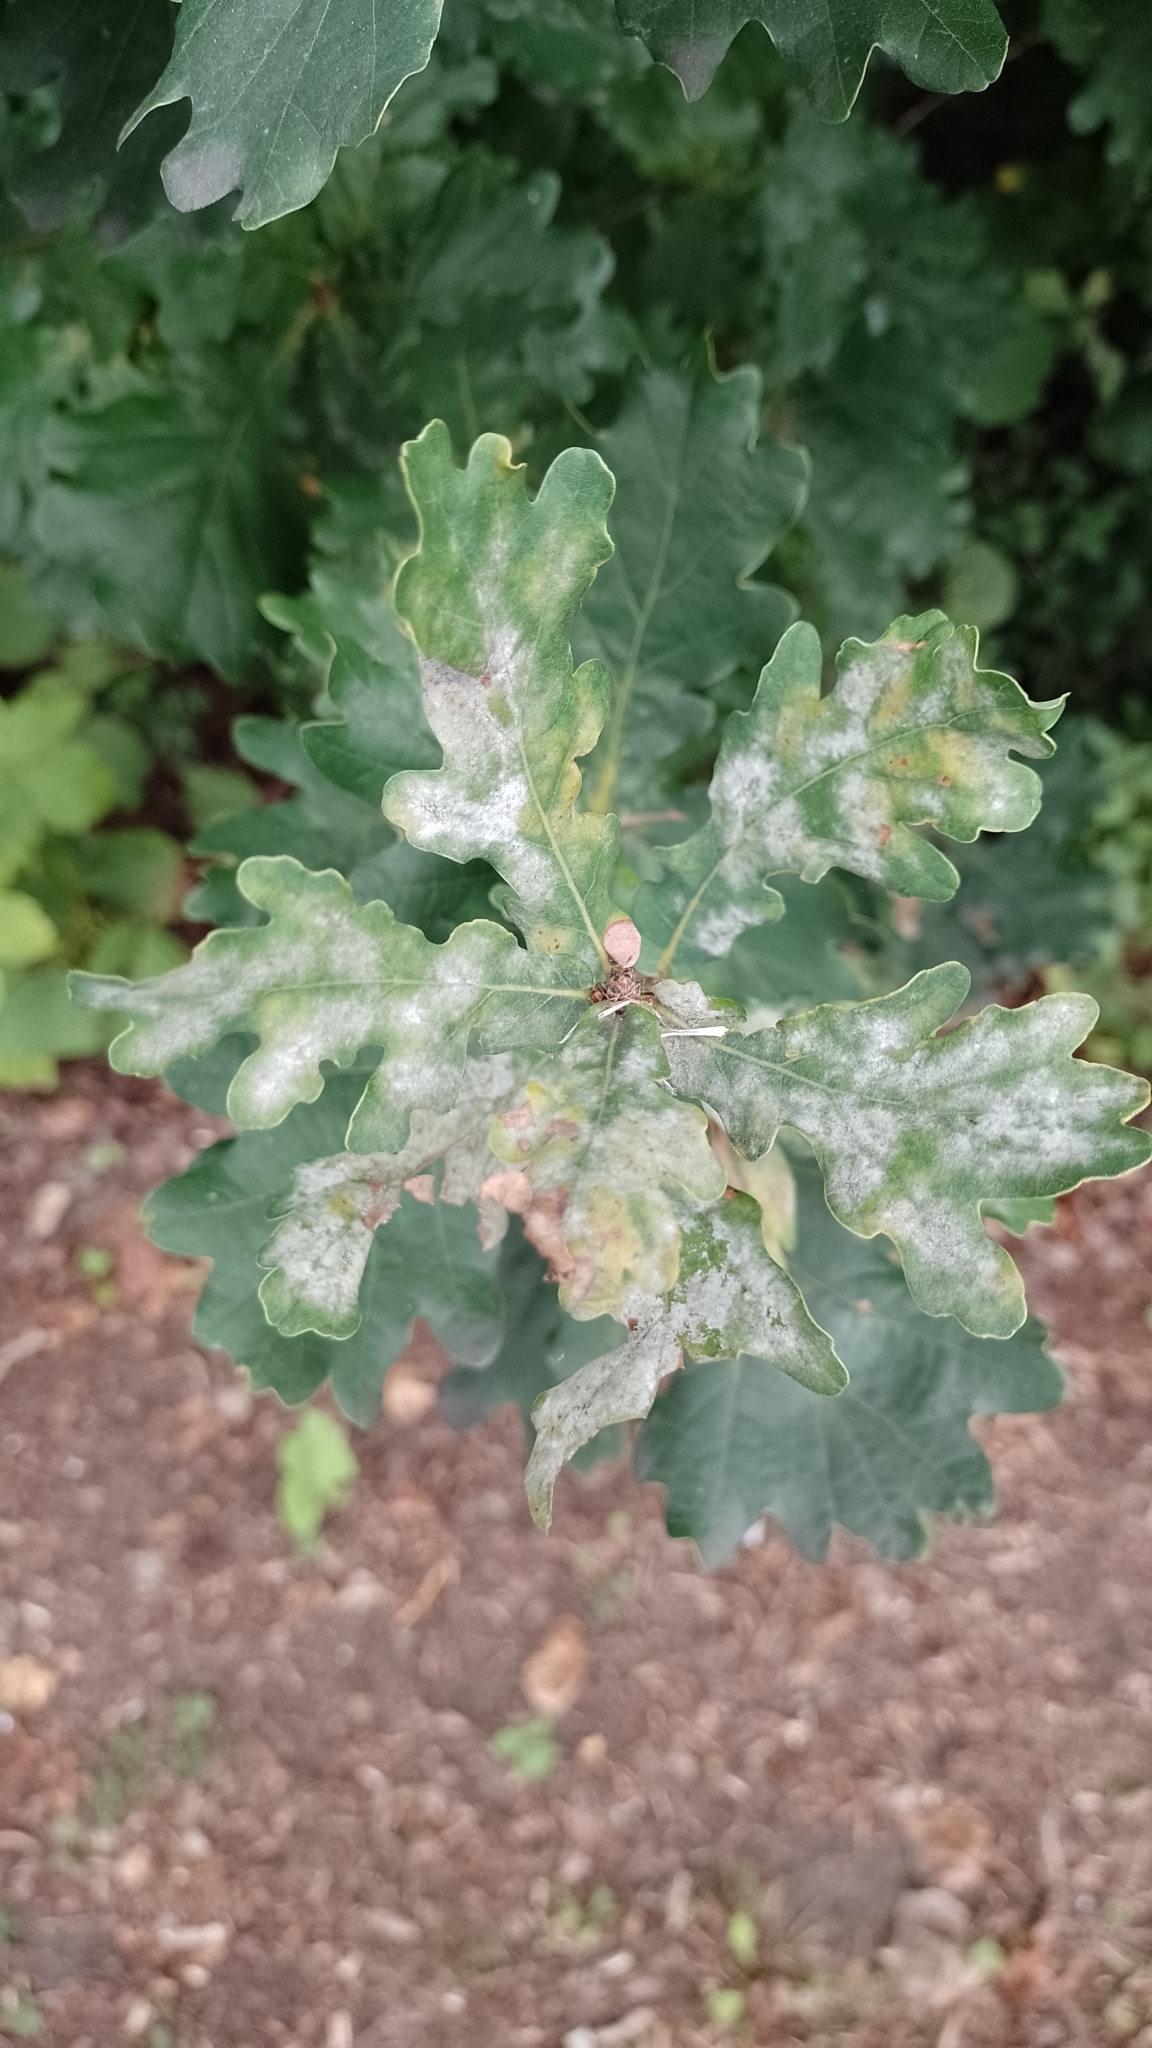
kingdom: Fungi
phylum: Ascomycota
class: Leotiomycetes
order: Helotiales
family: Erysiphaceae
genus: Erysiphe
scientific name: Erysiphe alphitoides
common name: Oak mildew
